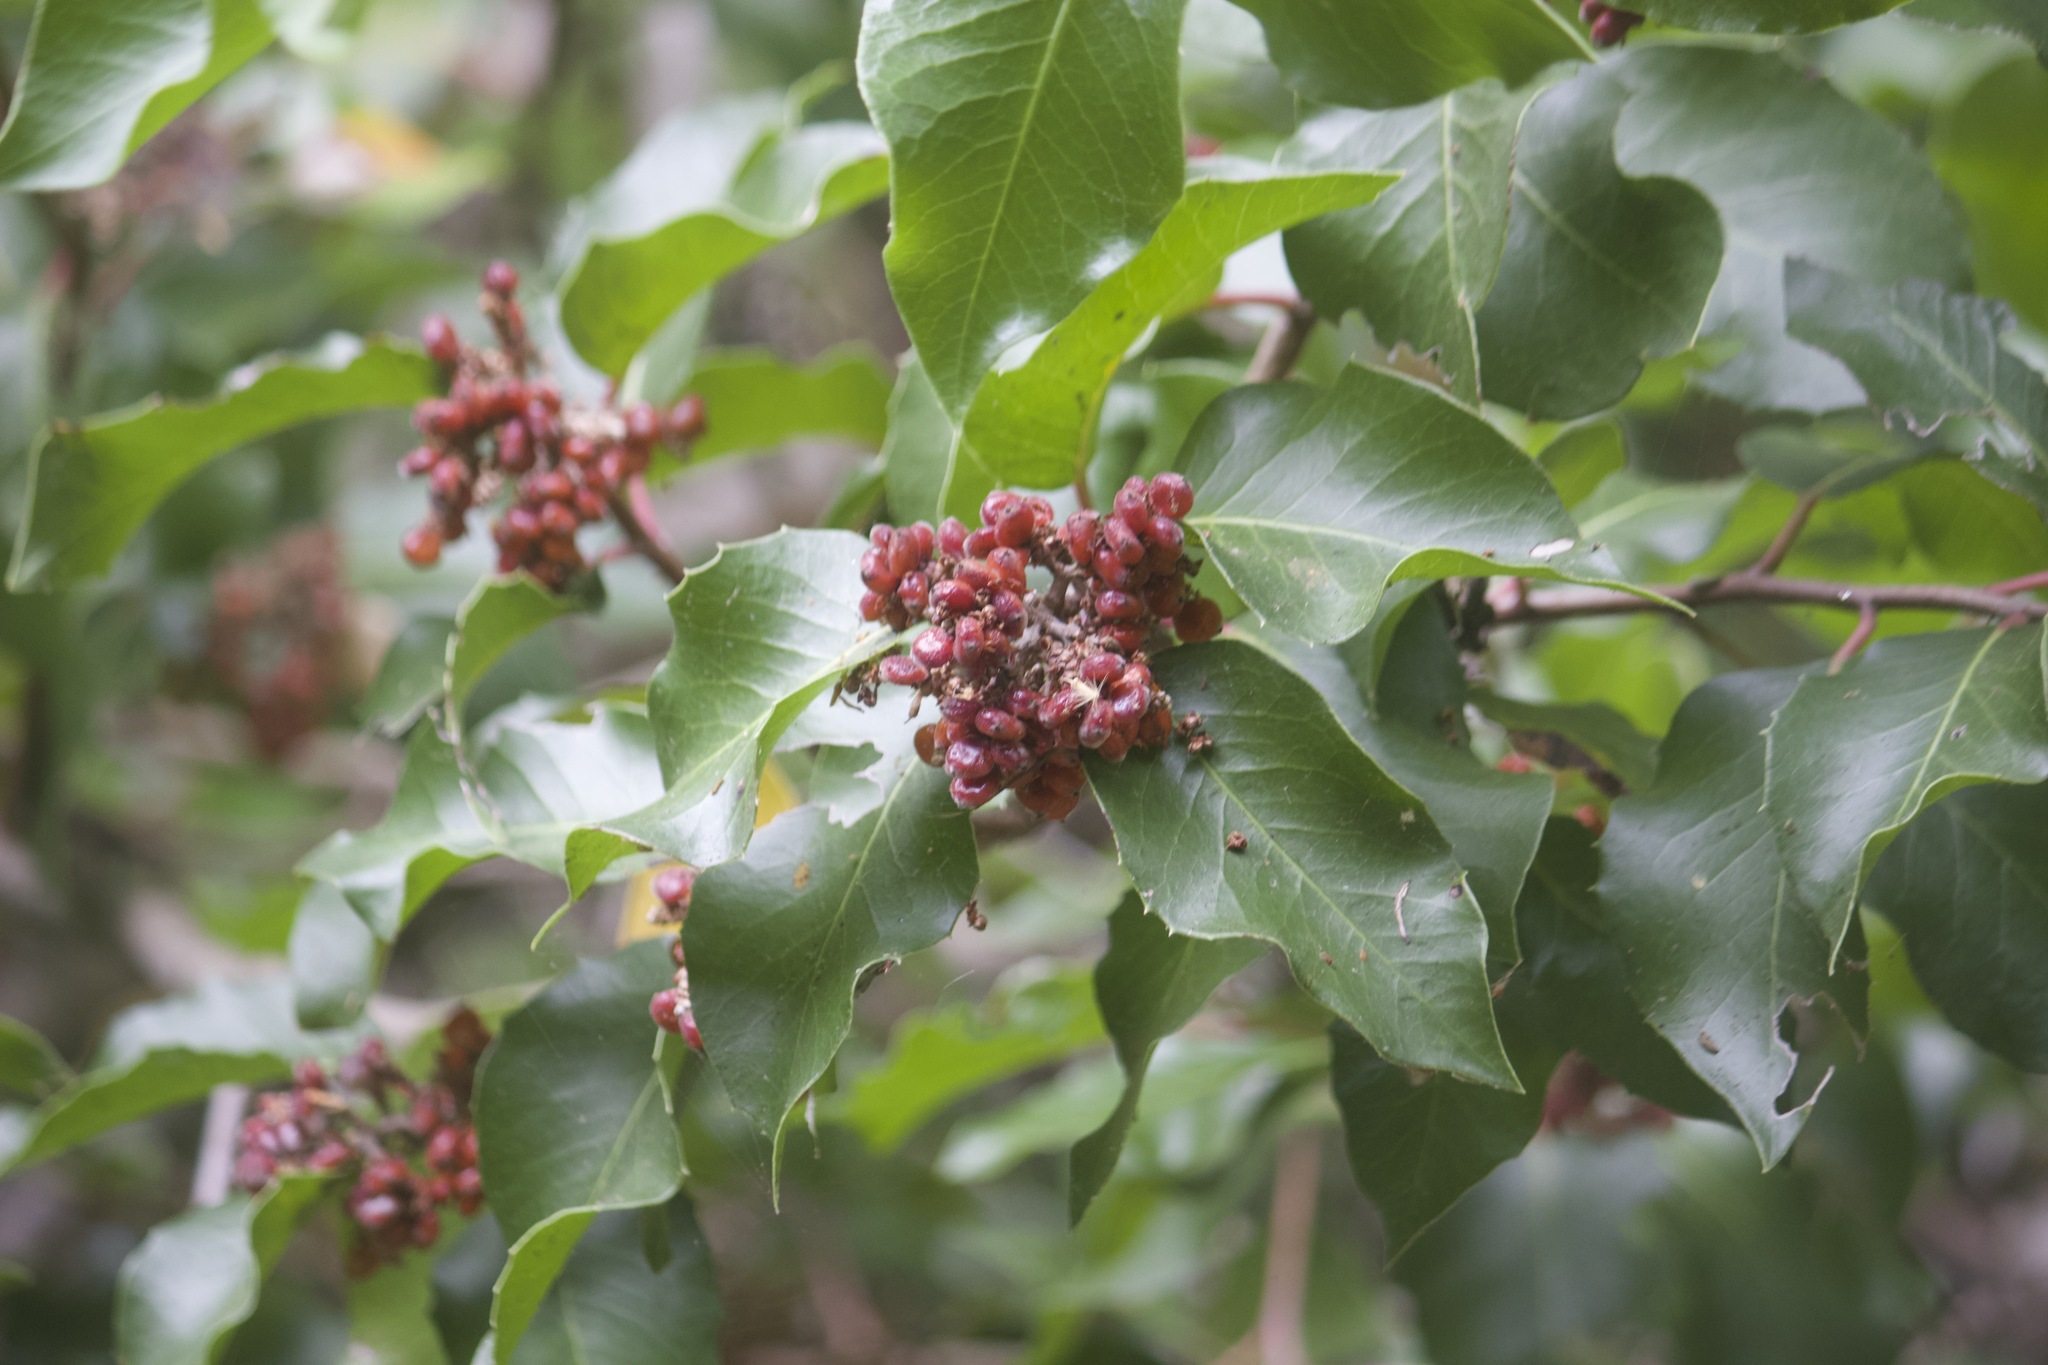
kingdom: Plantae
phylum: Tracheophyta
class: Magnoliopsida
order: Sapindales
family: Anacardiaceae
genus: Rhus
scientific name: Rhus ovata
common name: Sugar sumac
